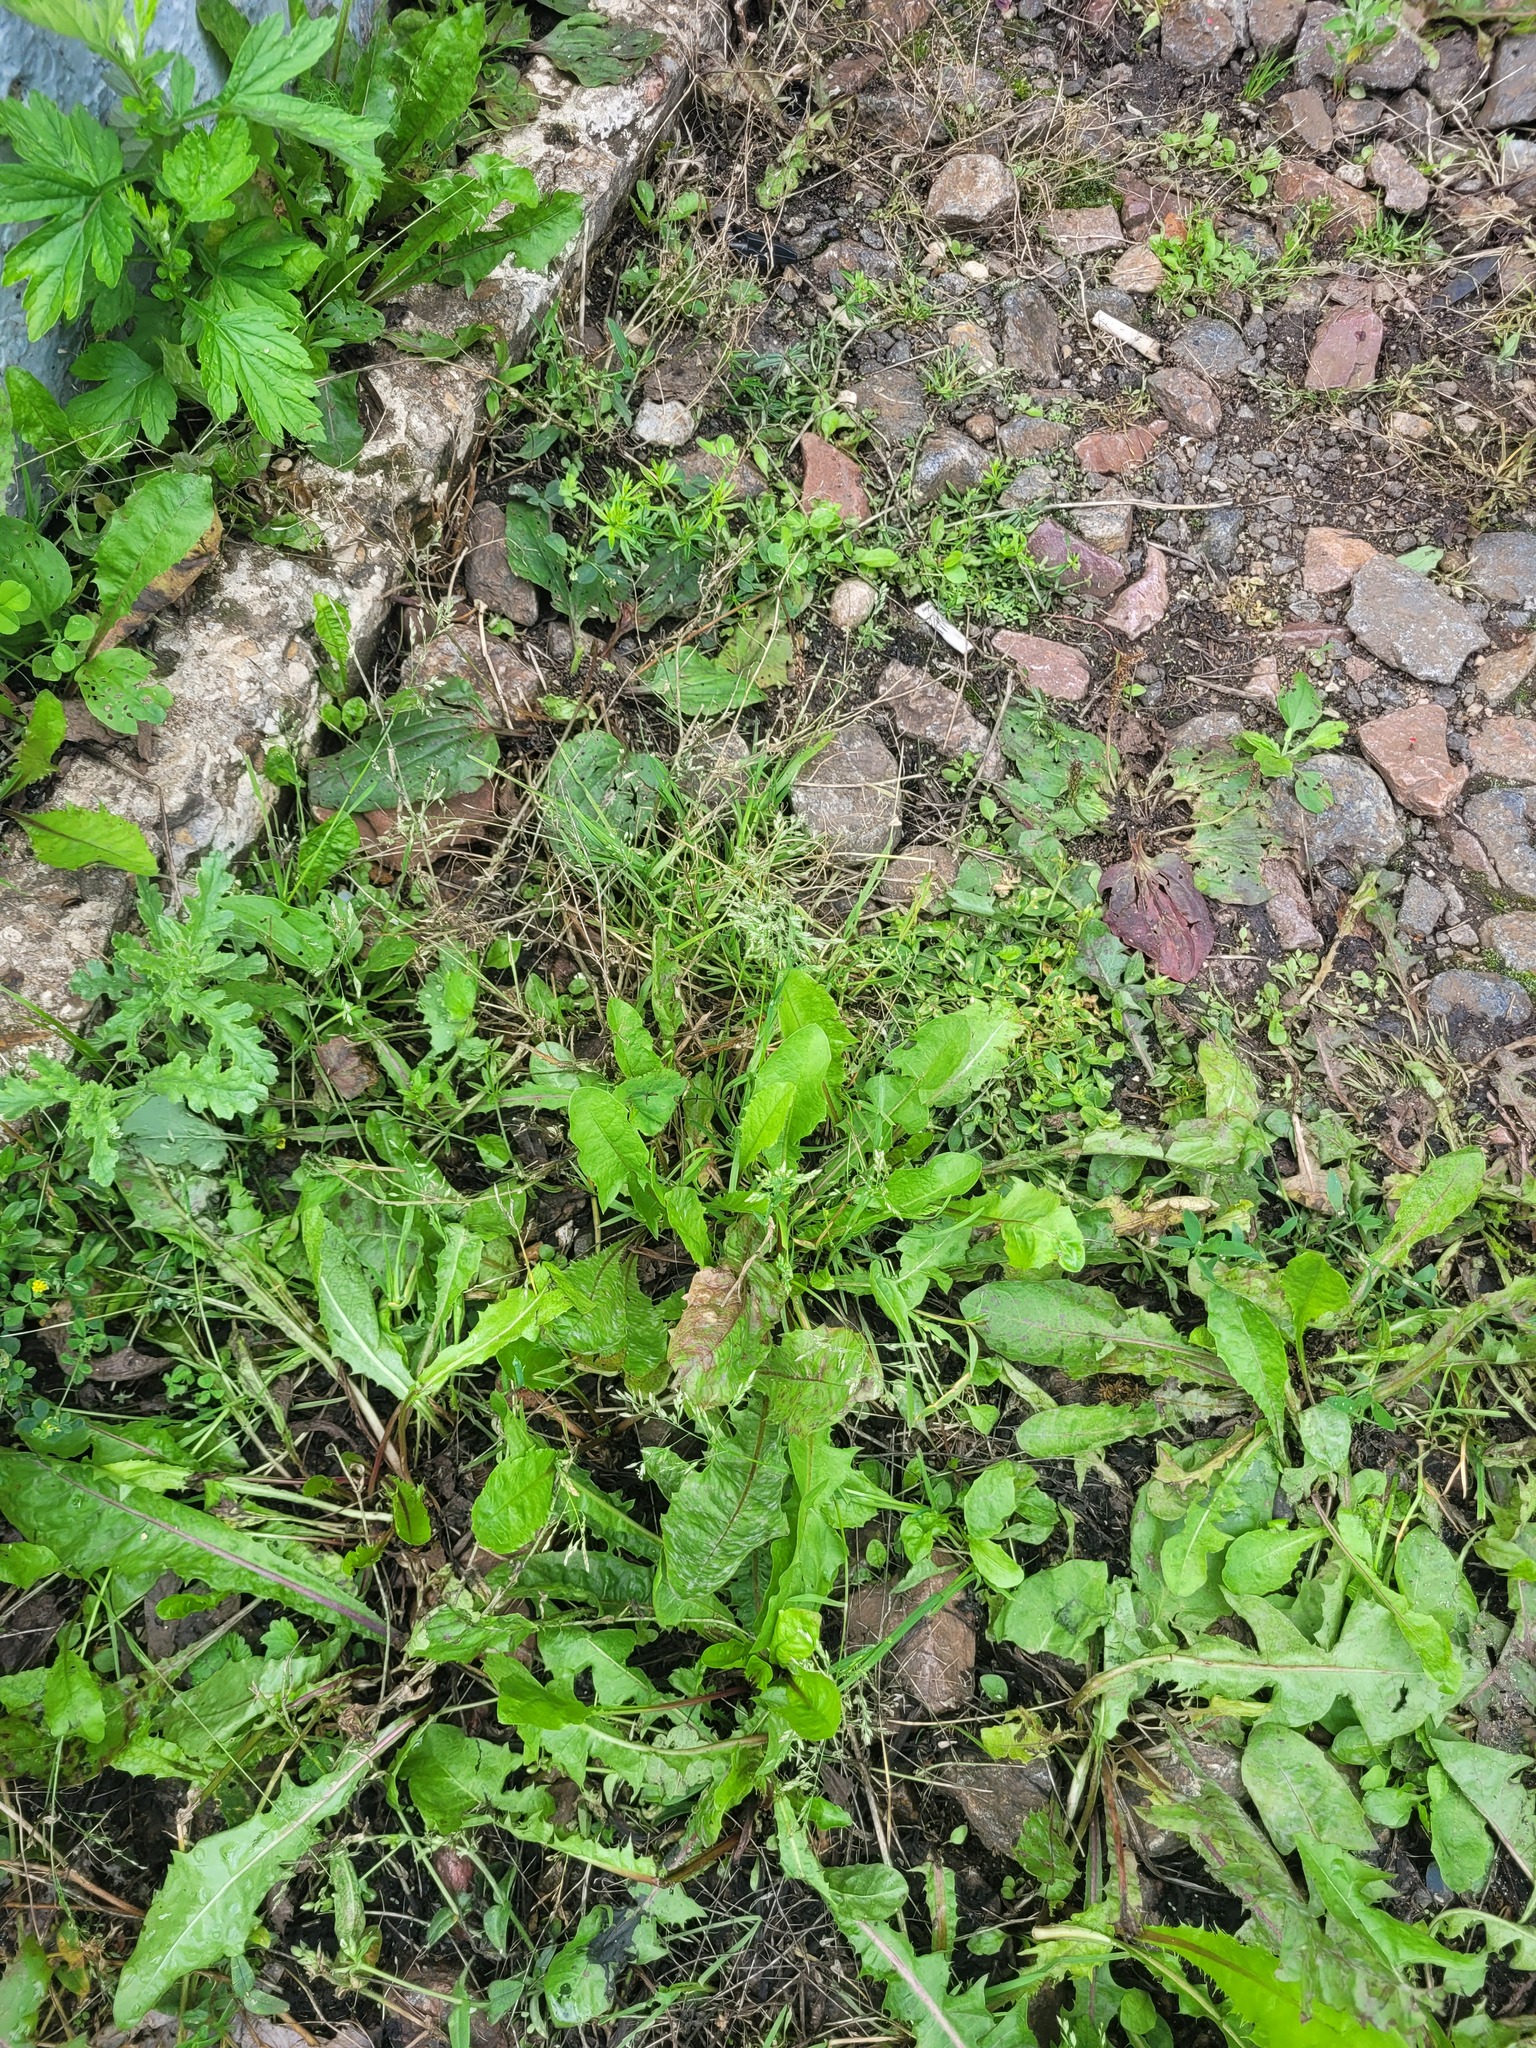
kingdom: Plantae
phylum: Tracheophyta
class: Liliopsida
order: Poales
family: Poaceae
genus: Poa
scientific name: Poa annua
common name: Annual bluegrass
